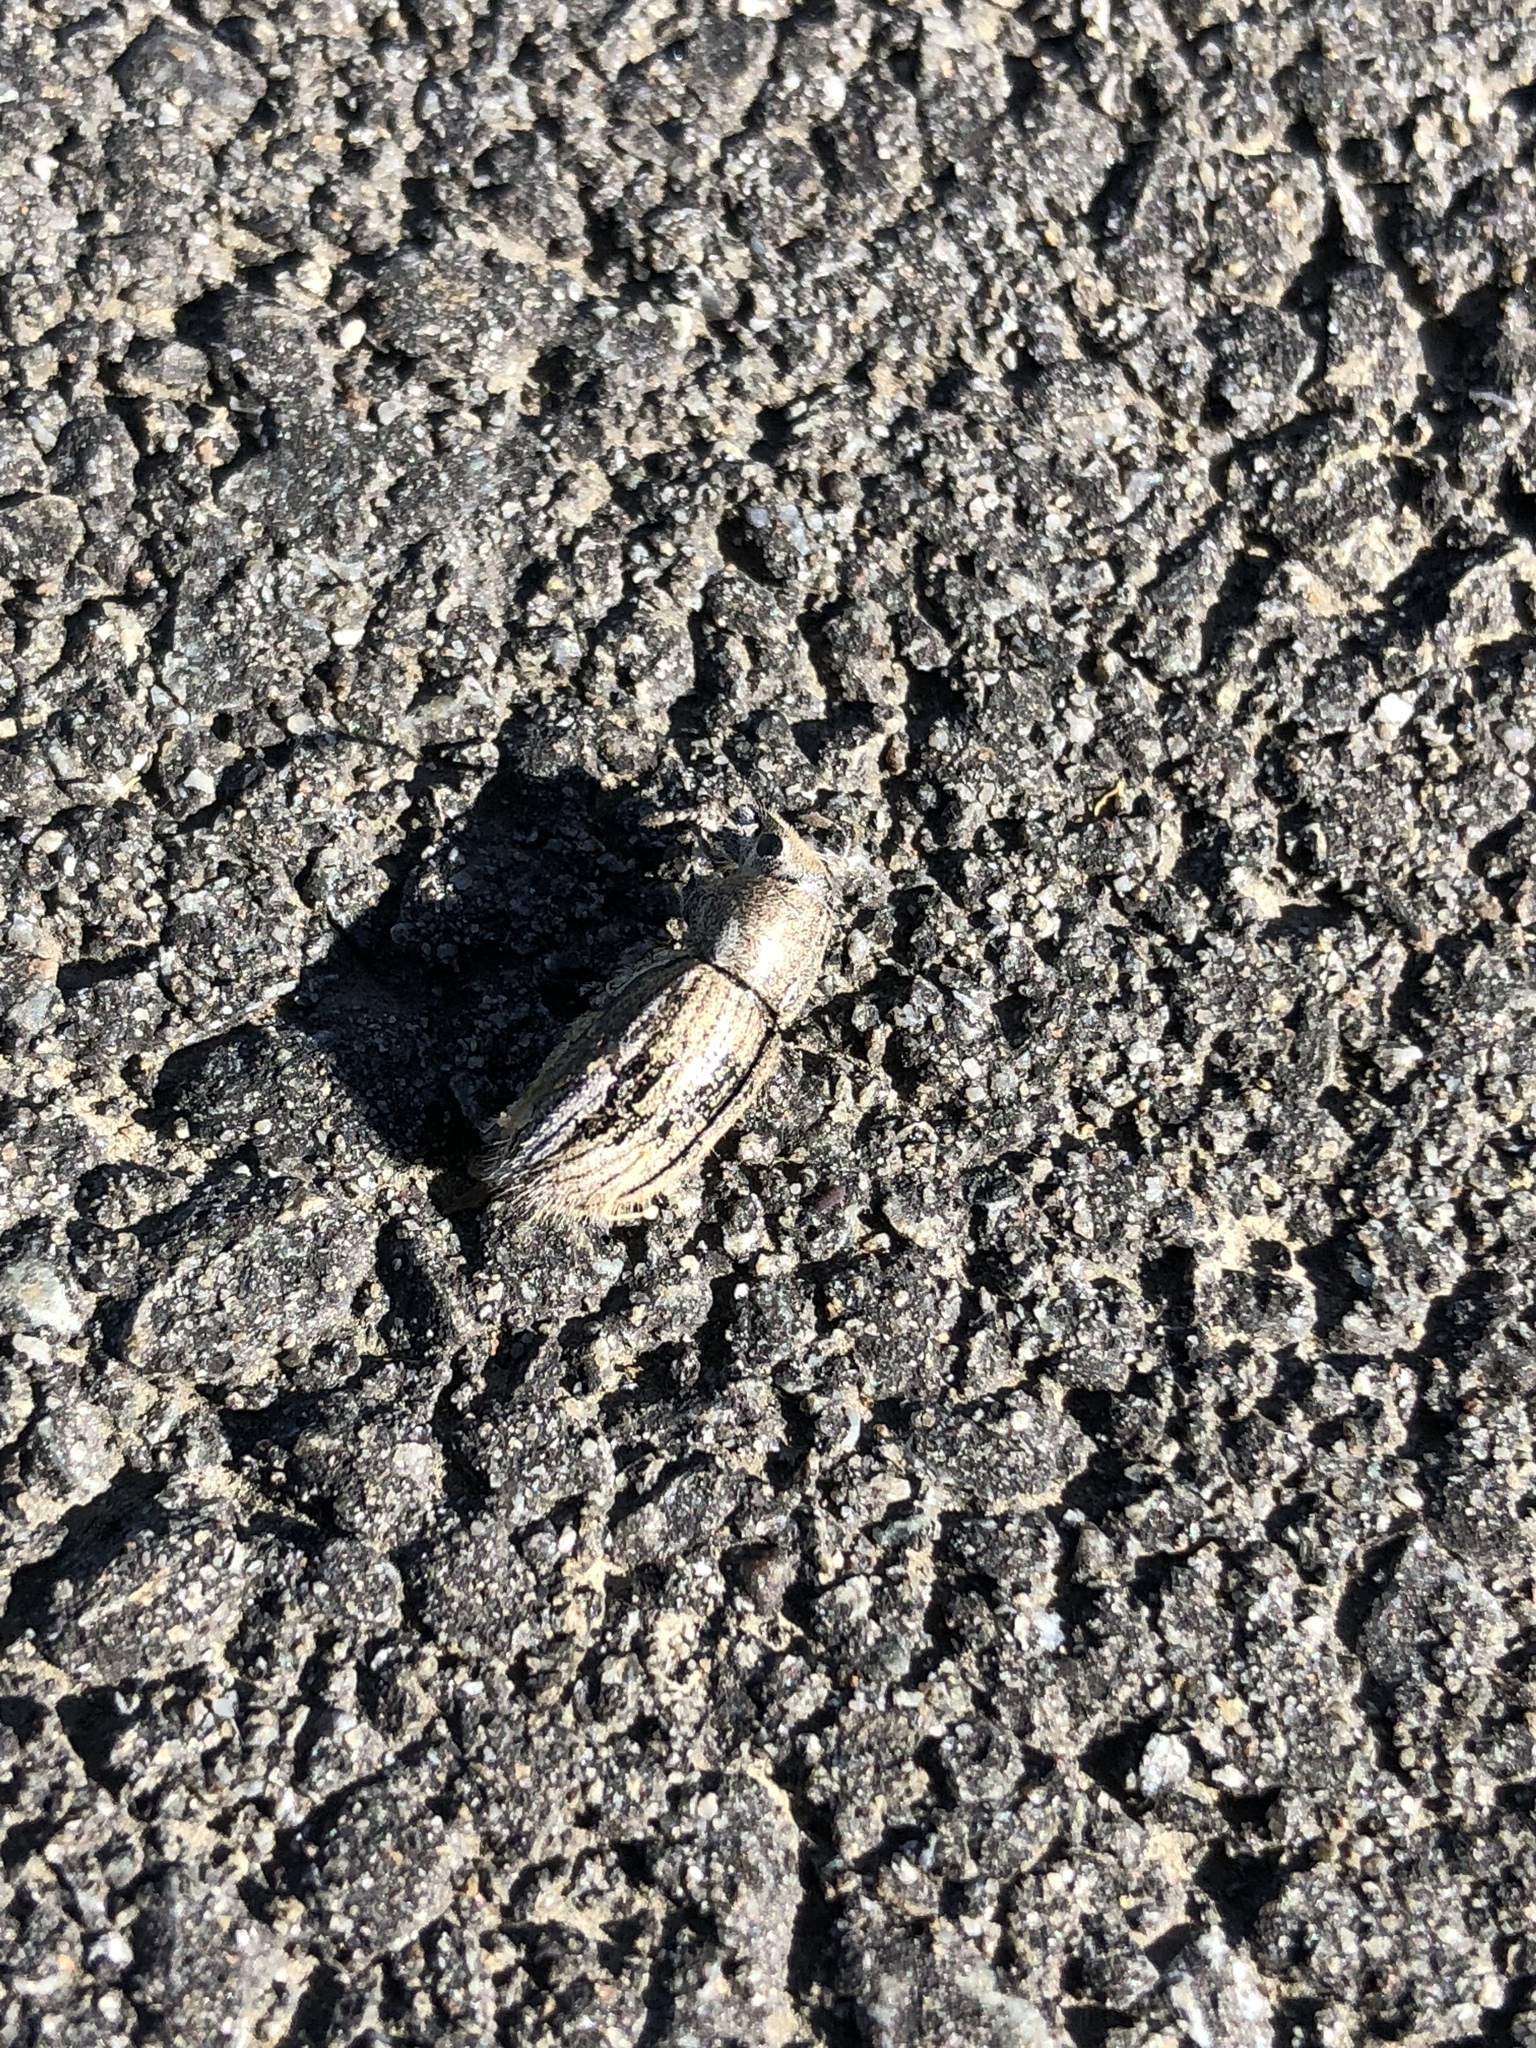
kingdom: Animalia
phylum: Arthropoda
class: Insecta
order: Coleoptera
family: Curculionidae
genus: Naupactus
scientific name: Naupactus leucoloma
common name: Whitefringed beetle
